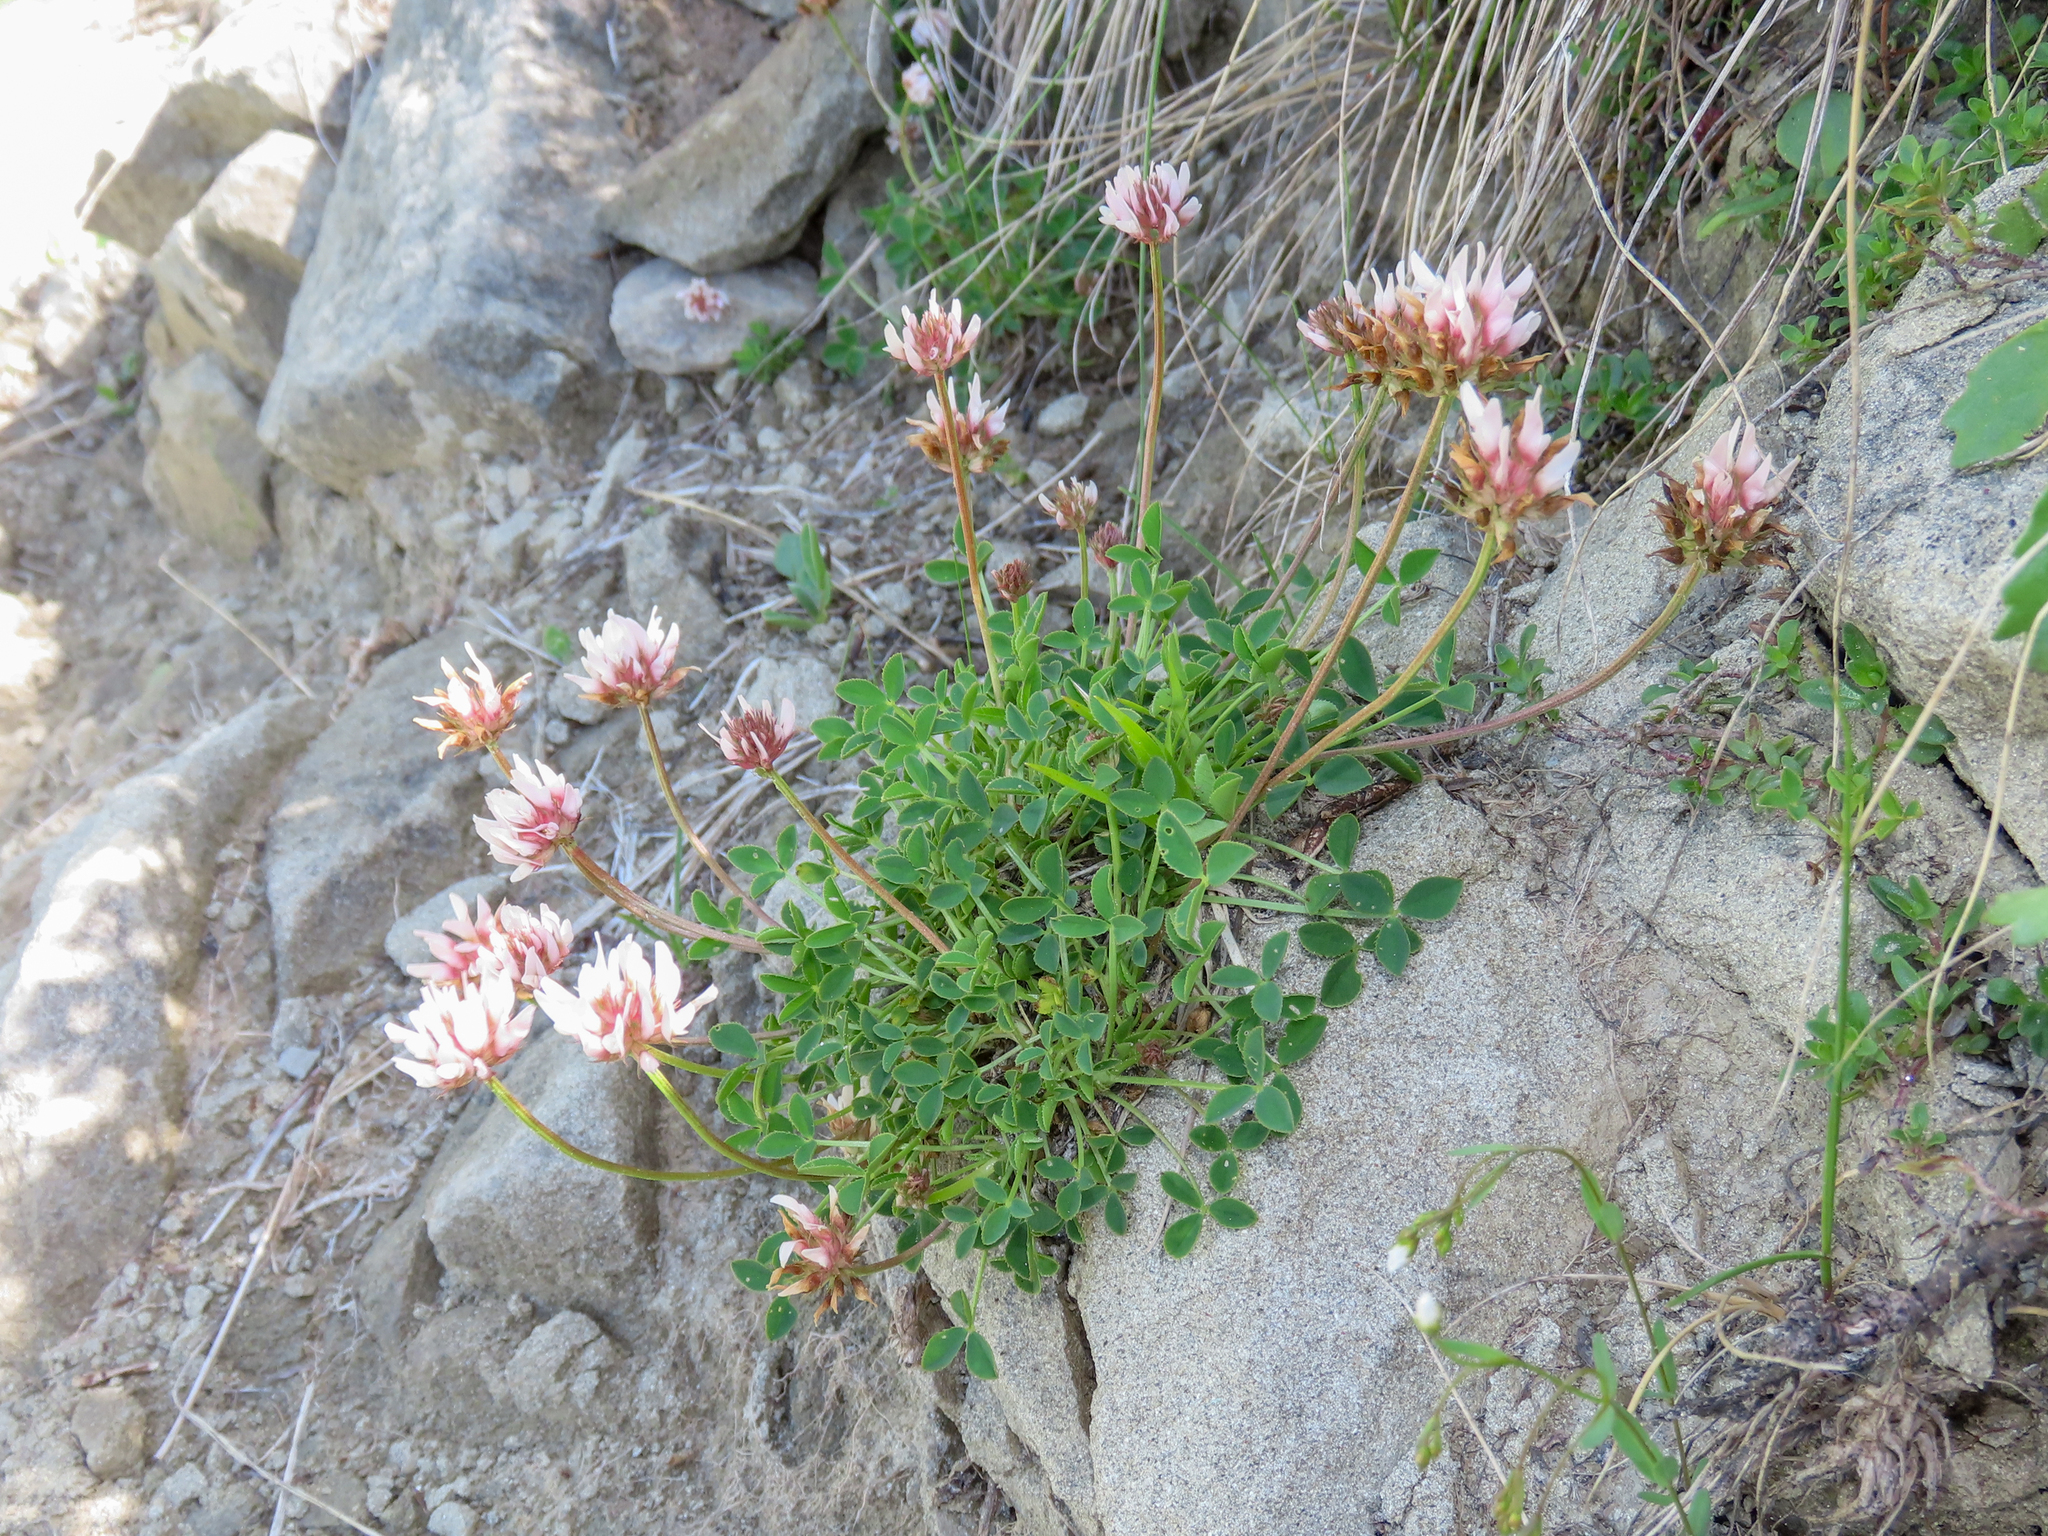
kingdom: Plantae
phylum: Tracheophyta
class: Magnoliopsida
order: Fabales
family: Fabaceae
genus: Trifolium
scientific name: Trifolium thalii
